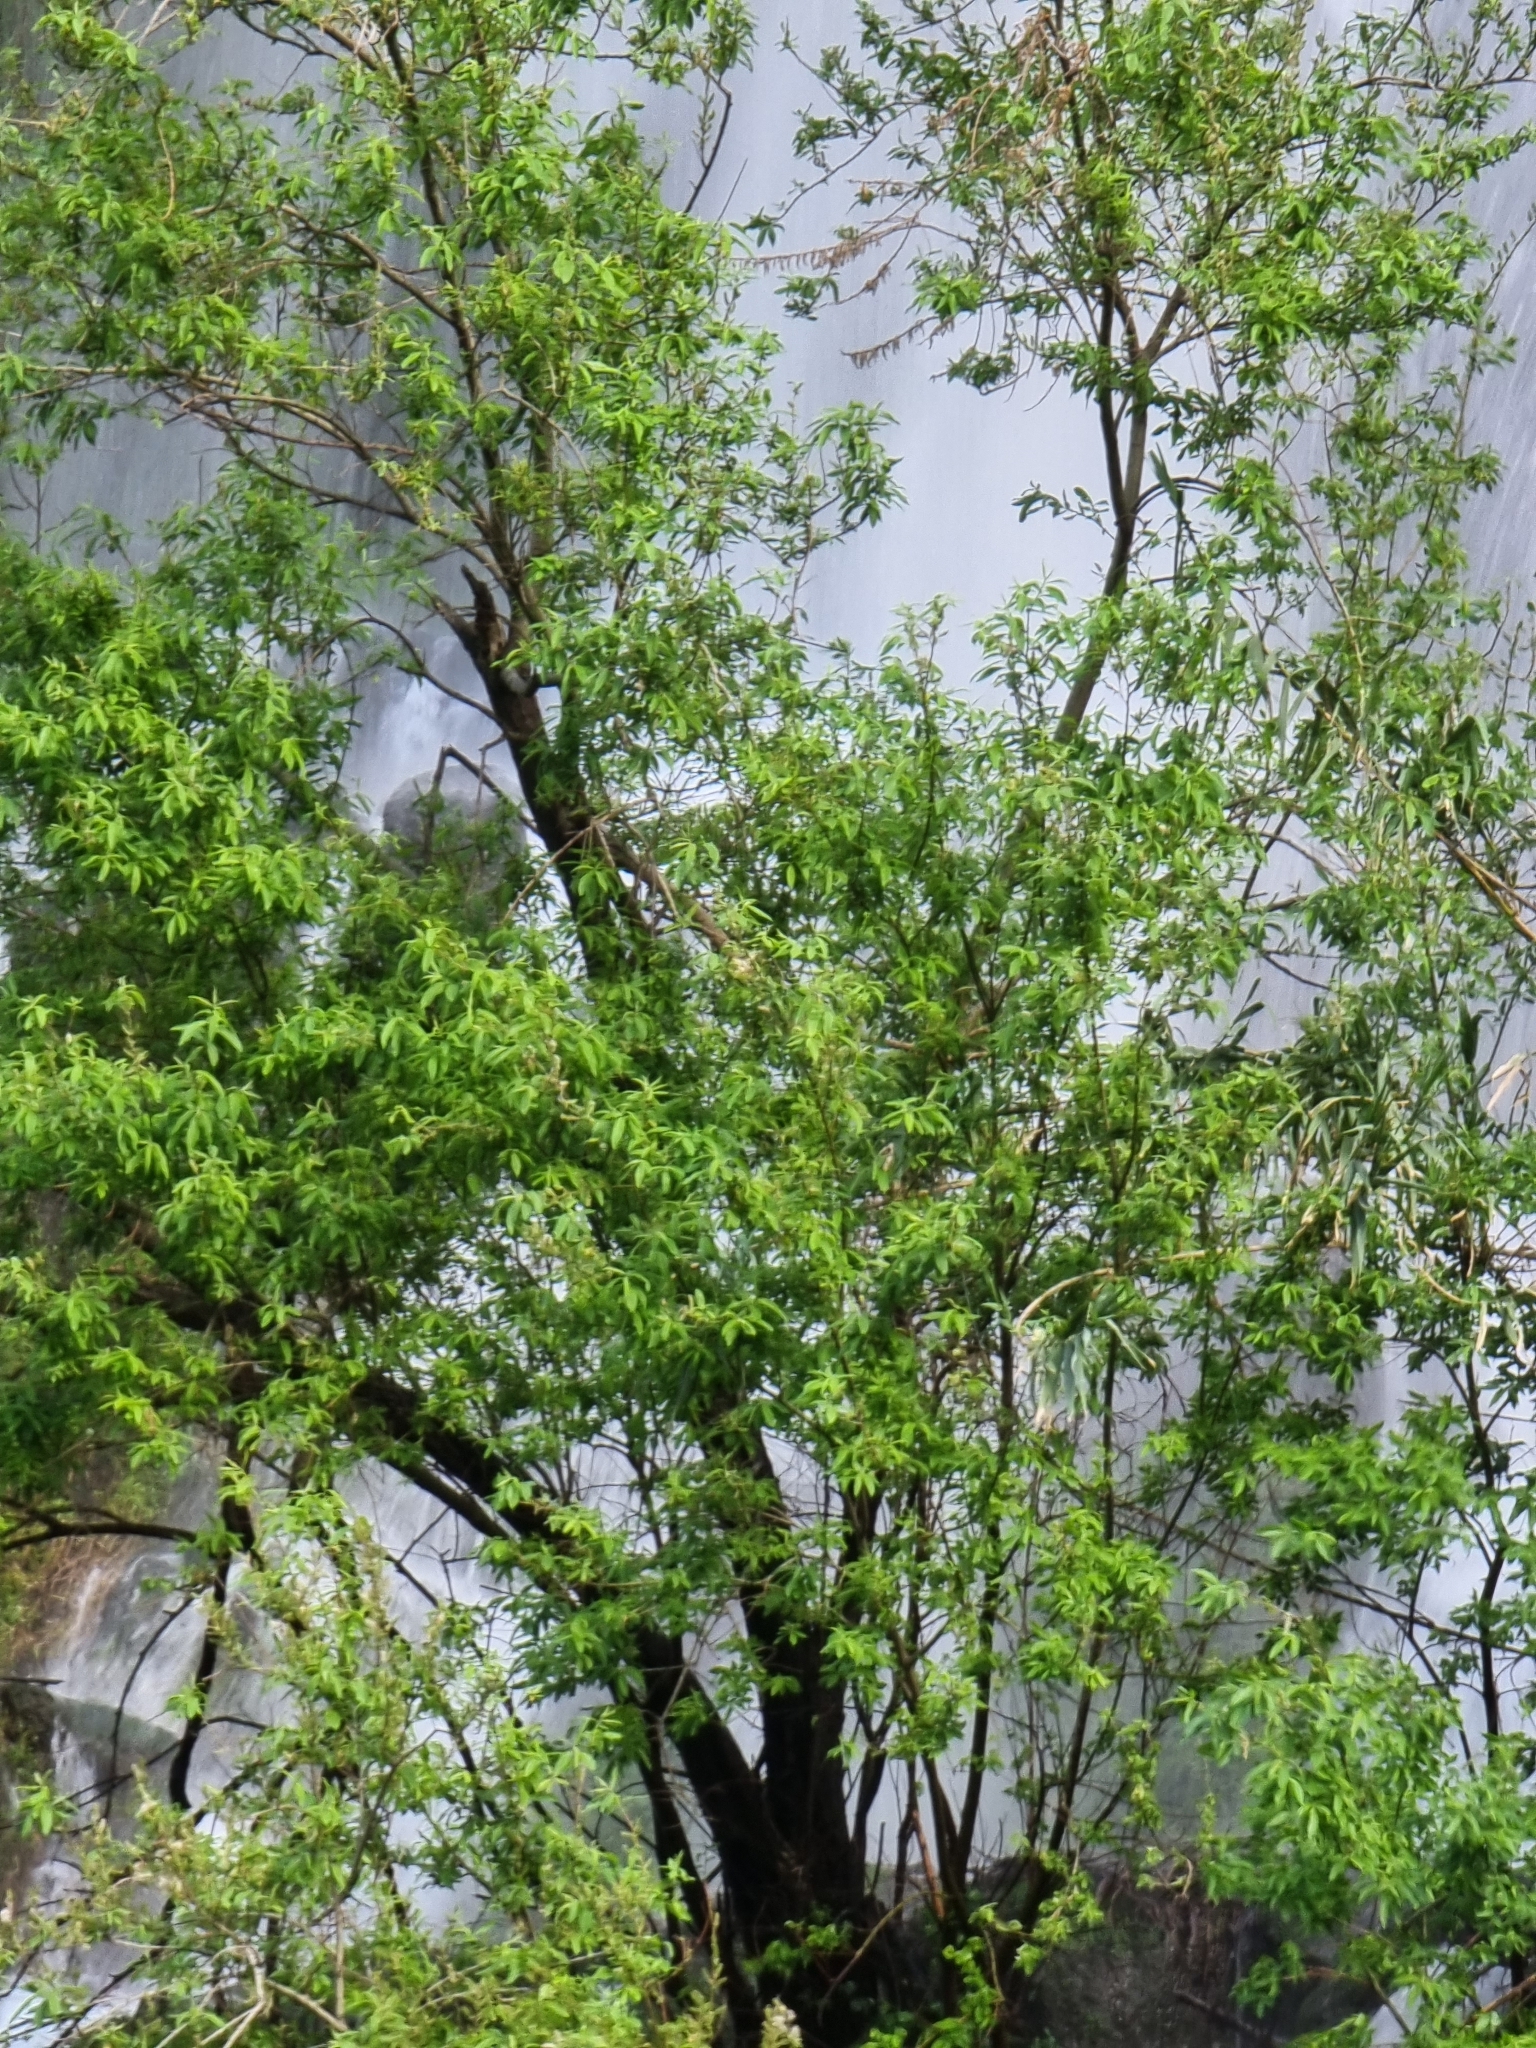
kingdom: Plantae
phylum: Tracheophyta
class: Magnoliopsida
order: Malpighiales
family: Salicaceae
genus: Salix
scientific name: Salix canariensis
